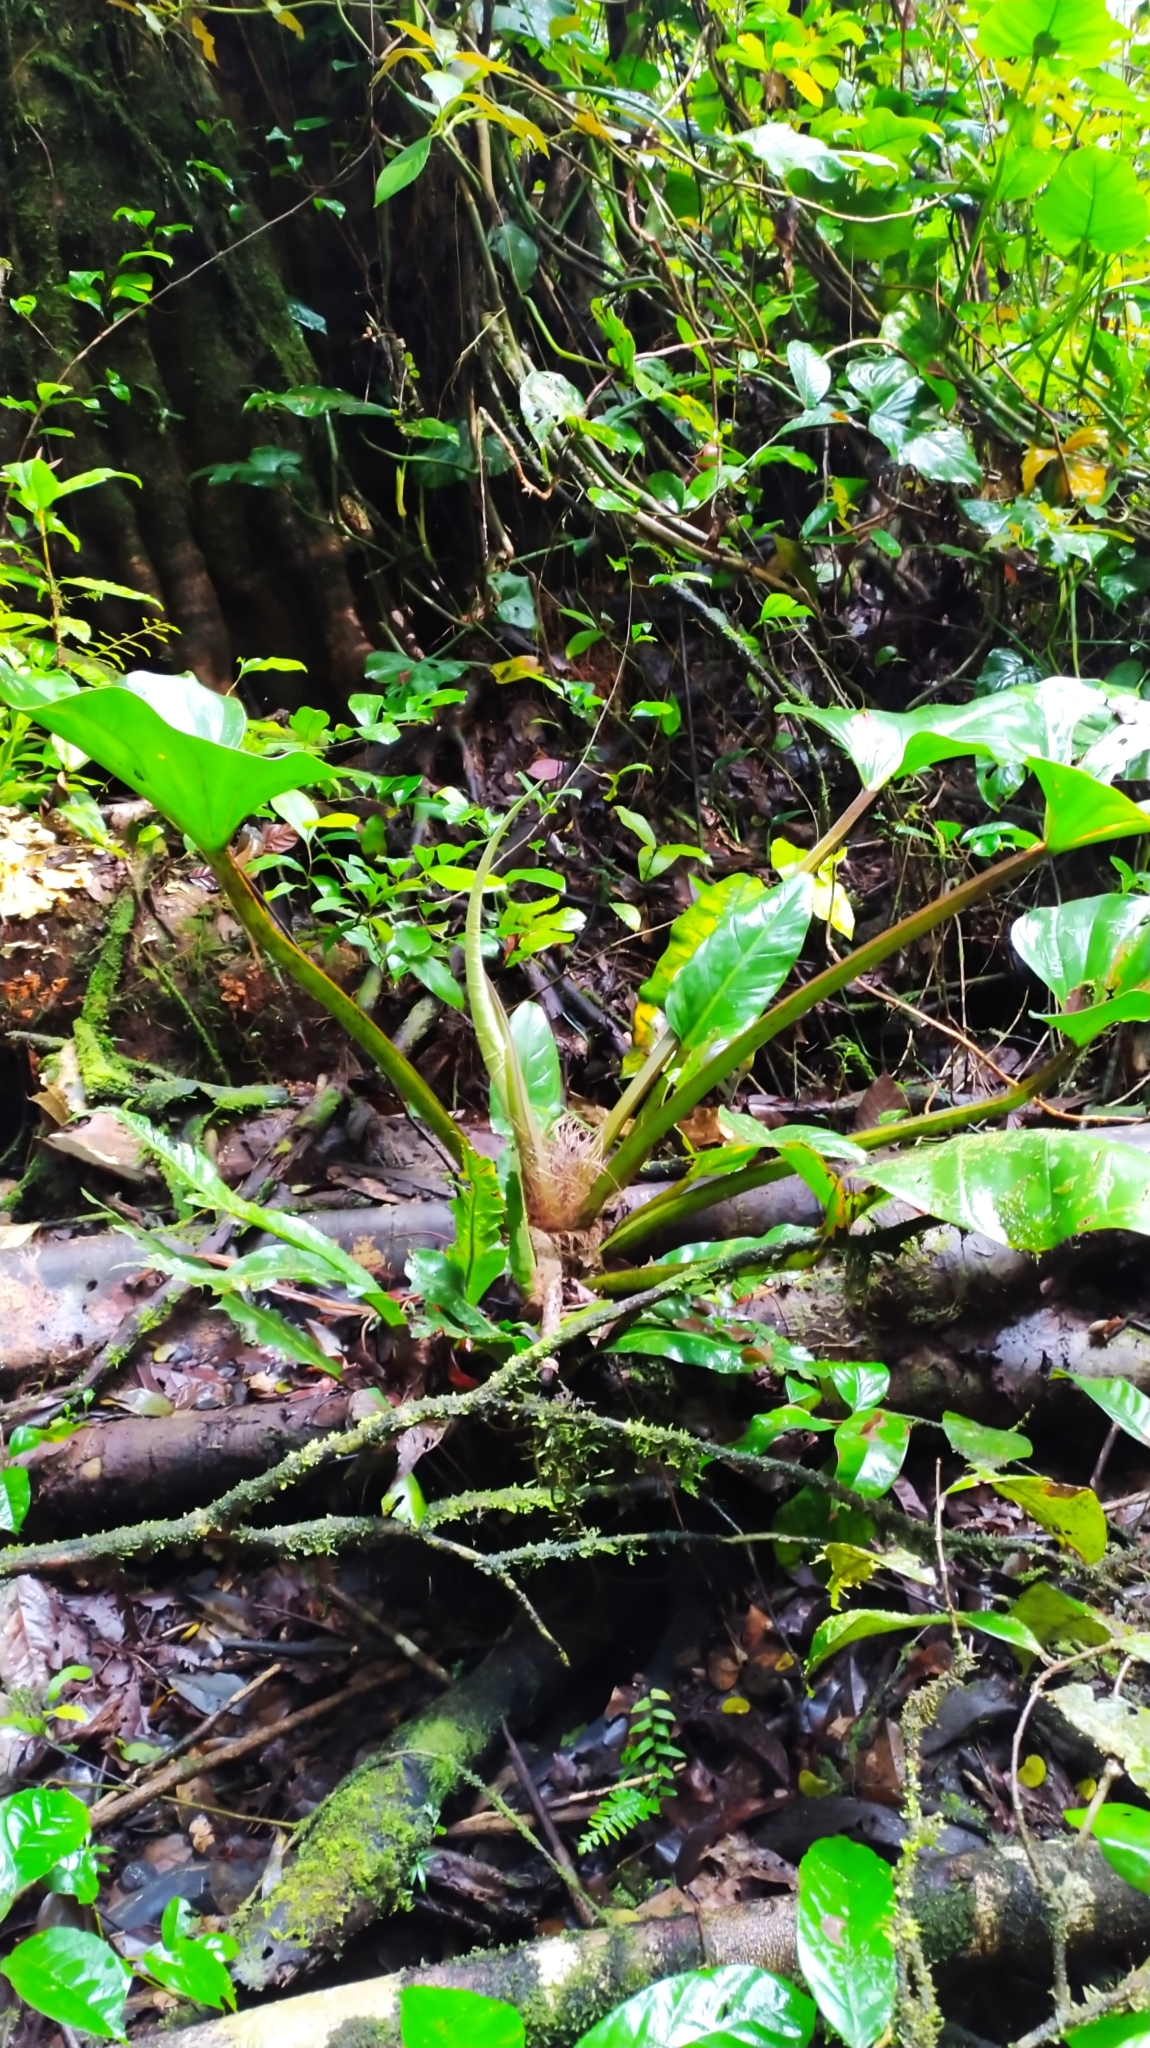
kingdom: Plantae
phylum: Tracheophyta
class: Liliopsida
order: Alismatales
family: Araceae
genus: Philodendron
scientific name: Philodendron melinonii
